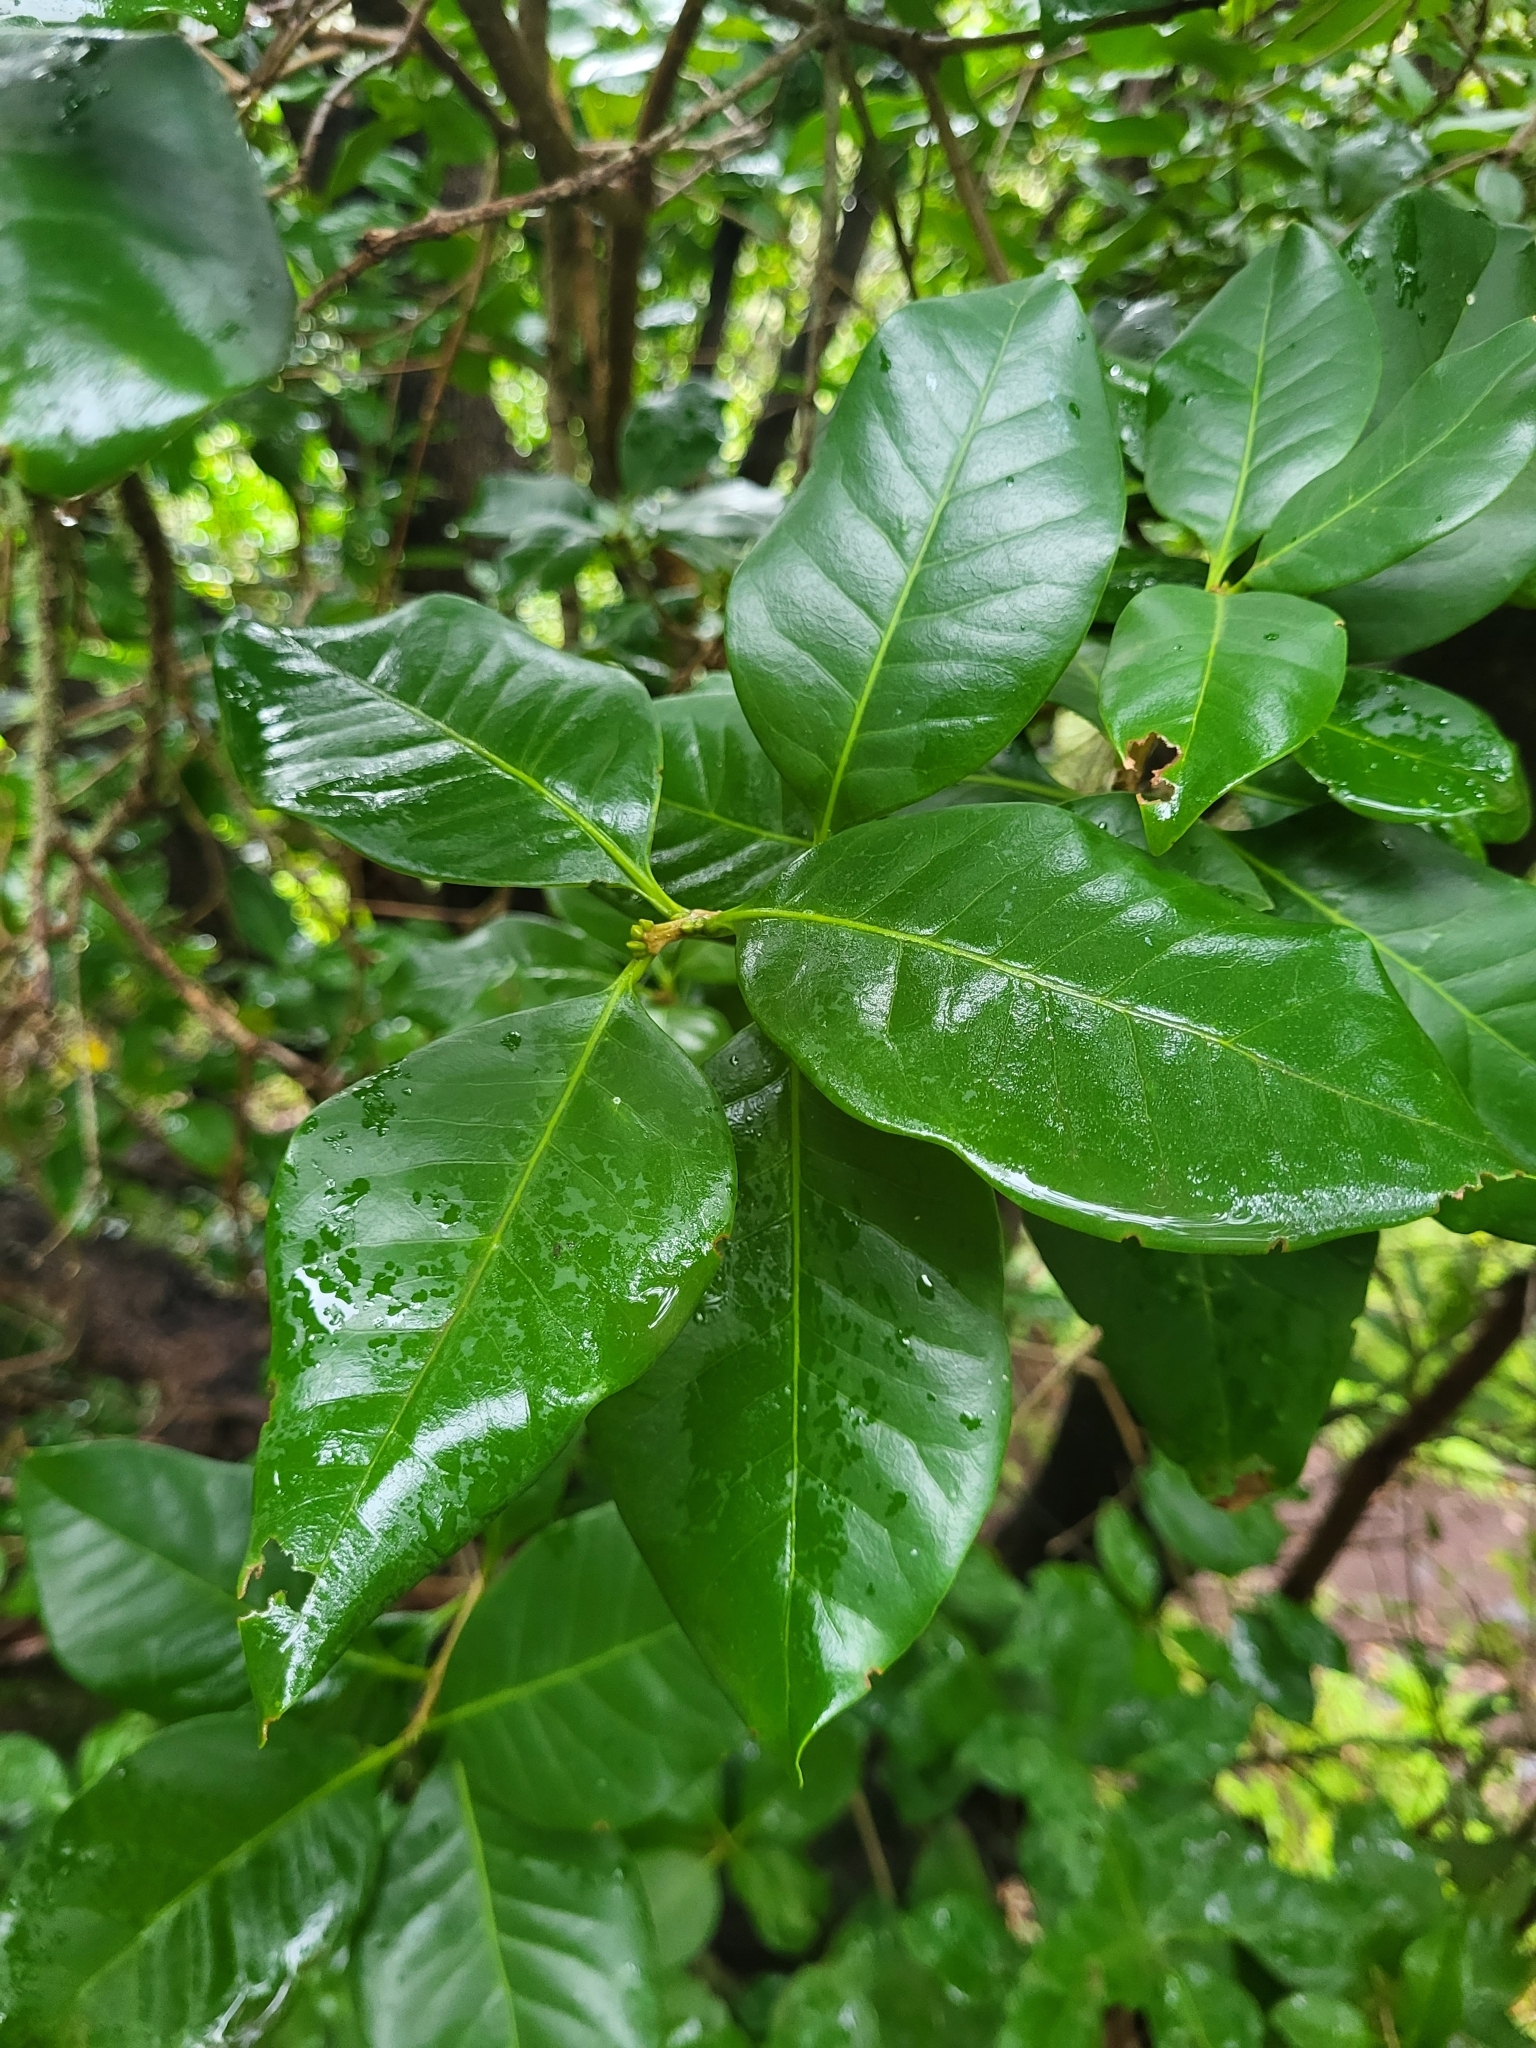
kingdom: Plantae
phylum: Tracheophyta
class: Magnoliopsida
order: Lamiales
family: Oleaceae
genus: Picconia
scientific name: Picconia excelsa
